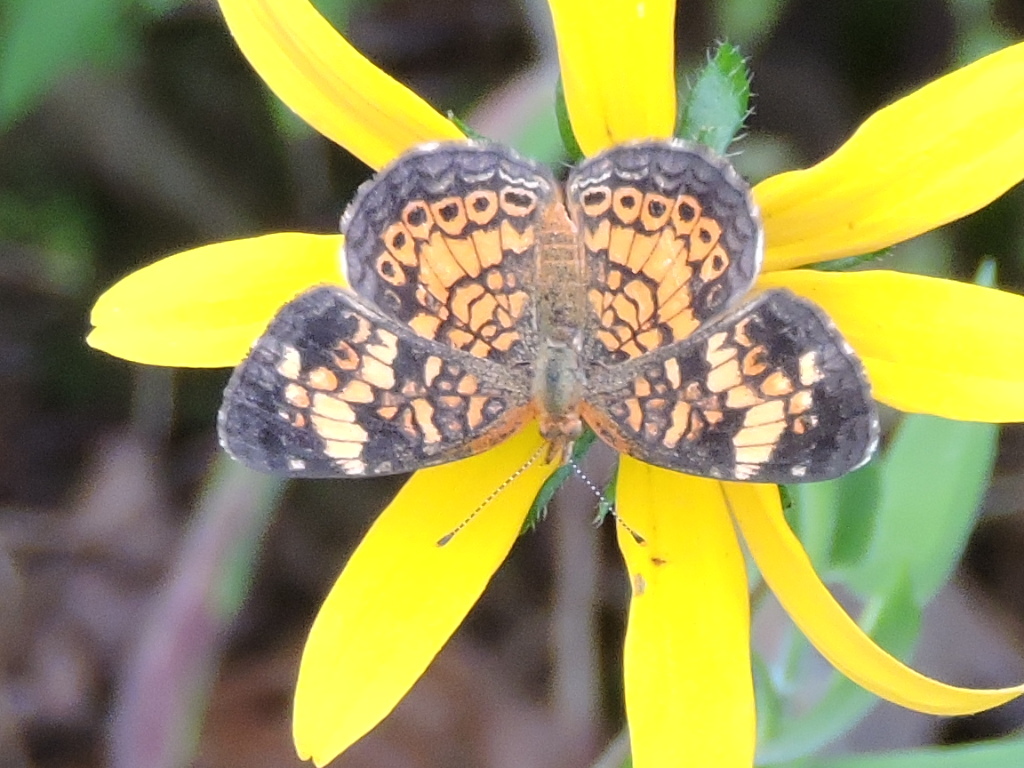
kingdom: Animalia
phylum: Arthropoda
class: Insecta
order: Lepidoptera
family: Nymphalidae
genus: Phyciodes
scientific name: Phyciodes tharos
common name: Pearl crescent
